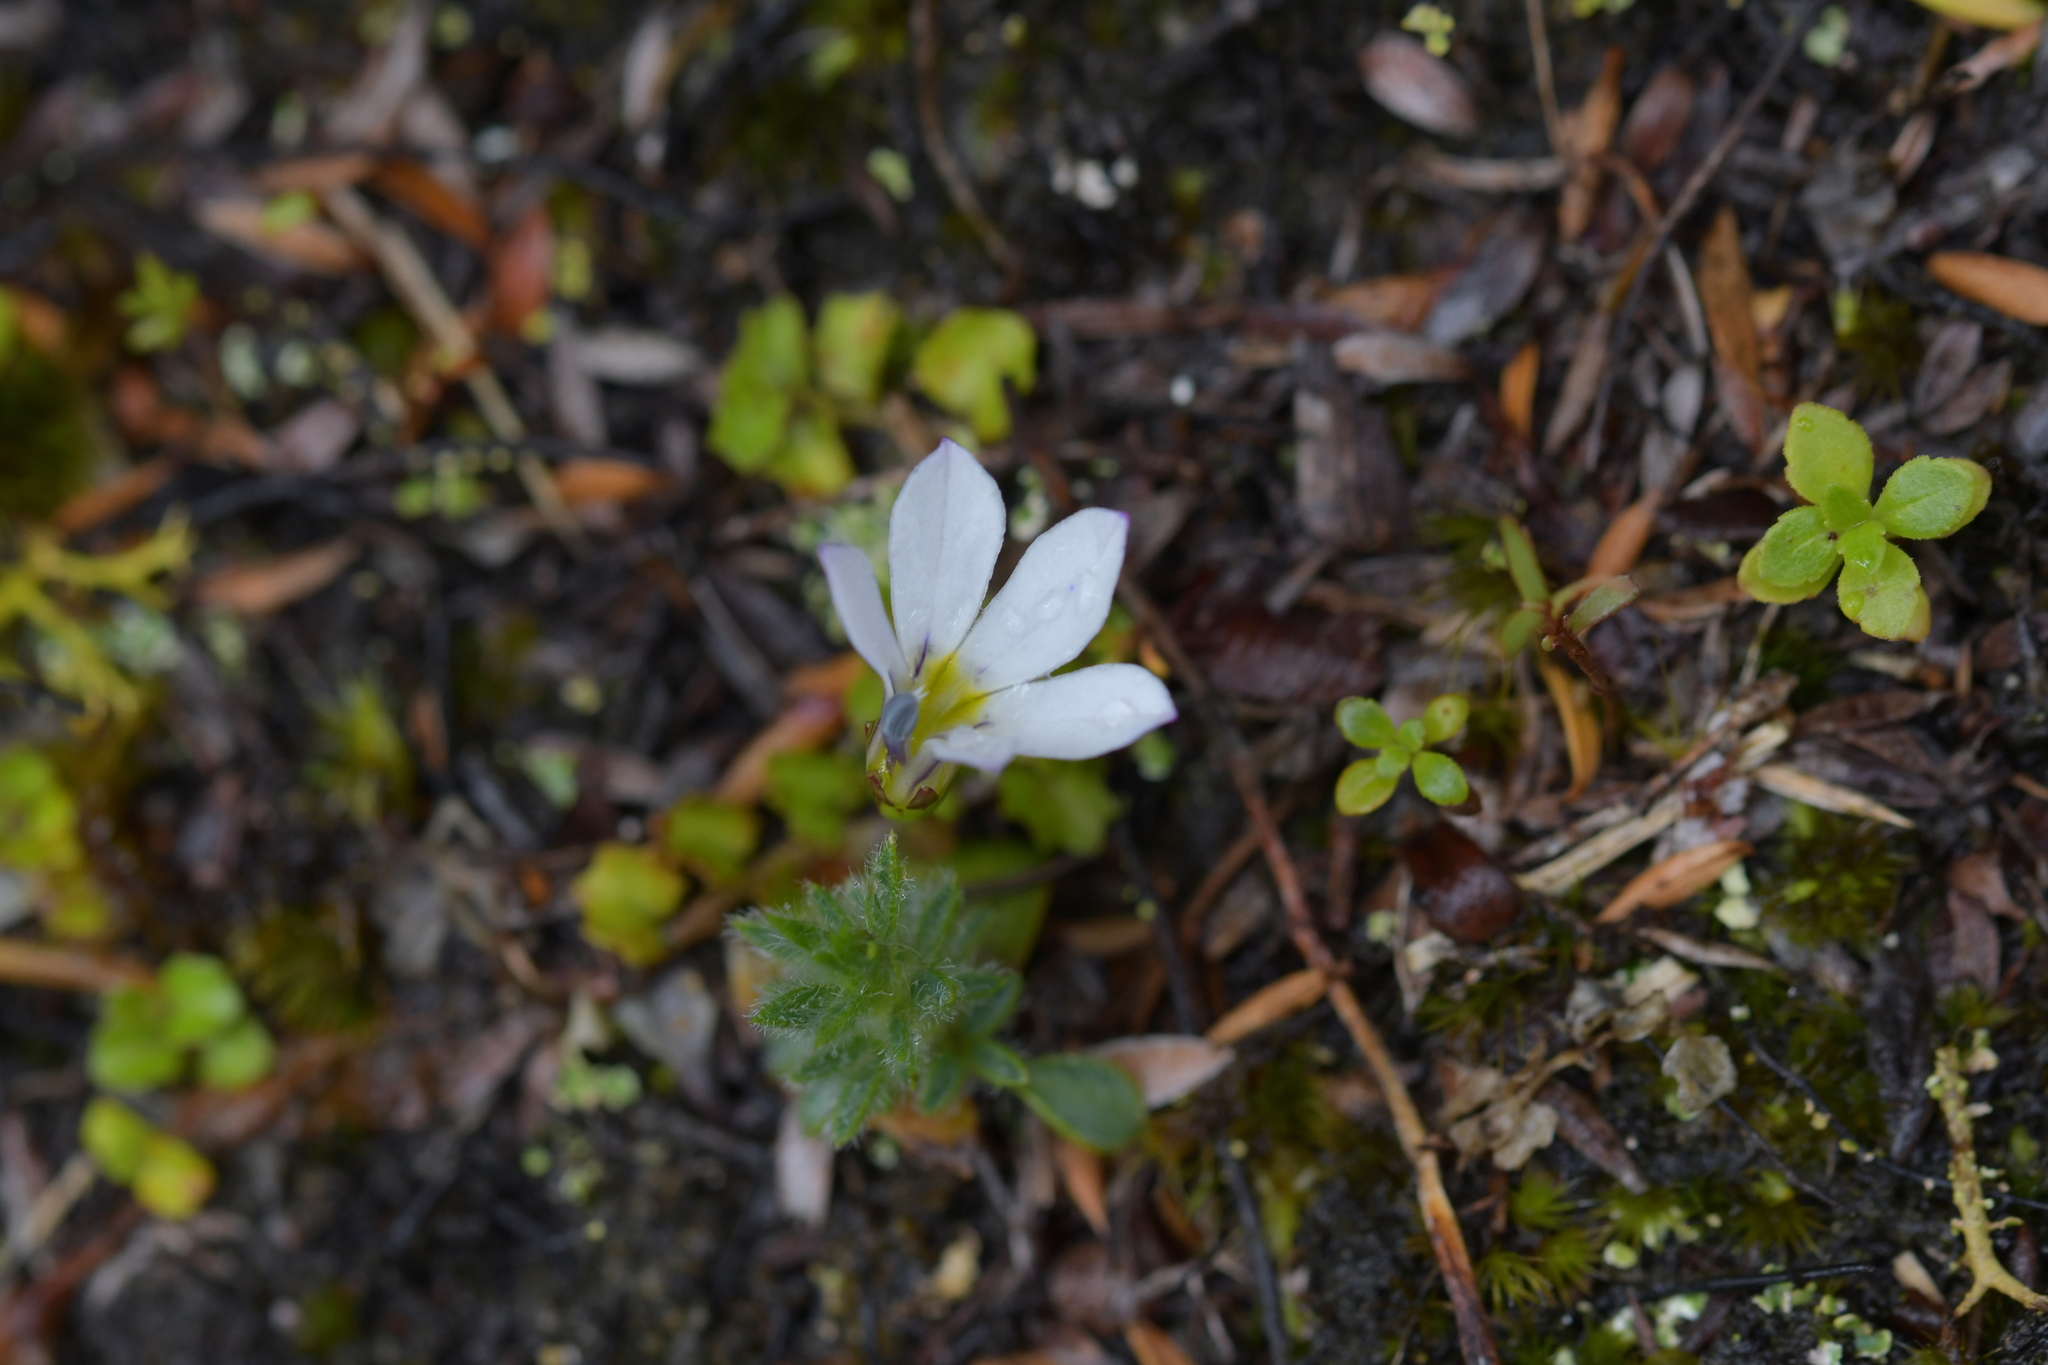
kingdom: Plantae
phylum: Tracheophyta
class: Magnoliopsida
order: Asterales
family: Campanulaceae
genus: Lobelia
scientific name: Lobelia angulata
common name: Lawn lobelia
